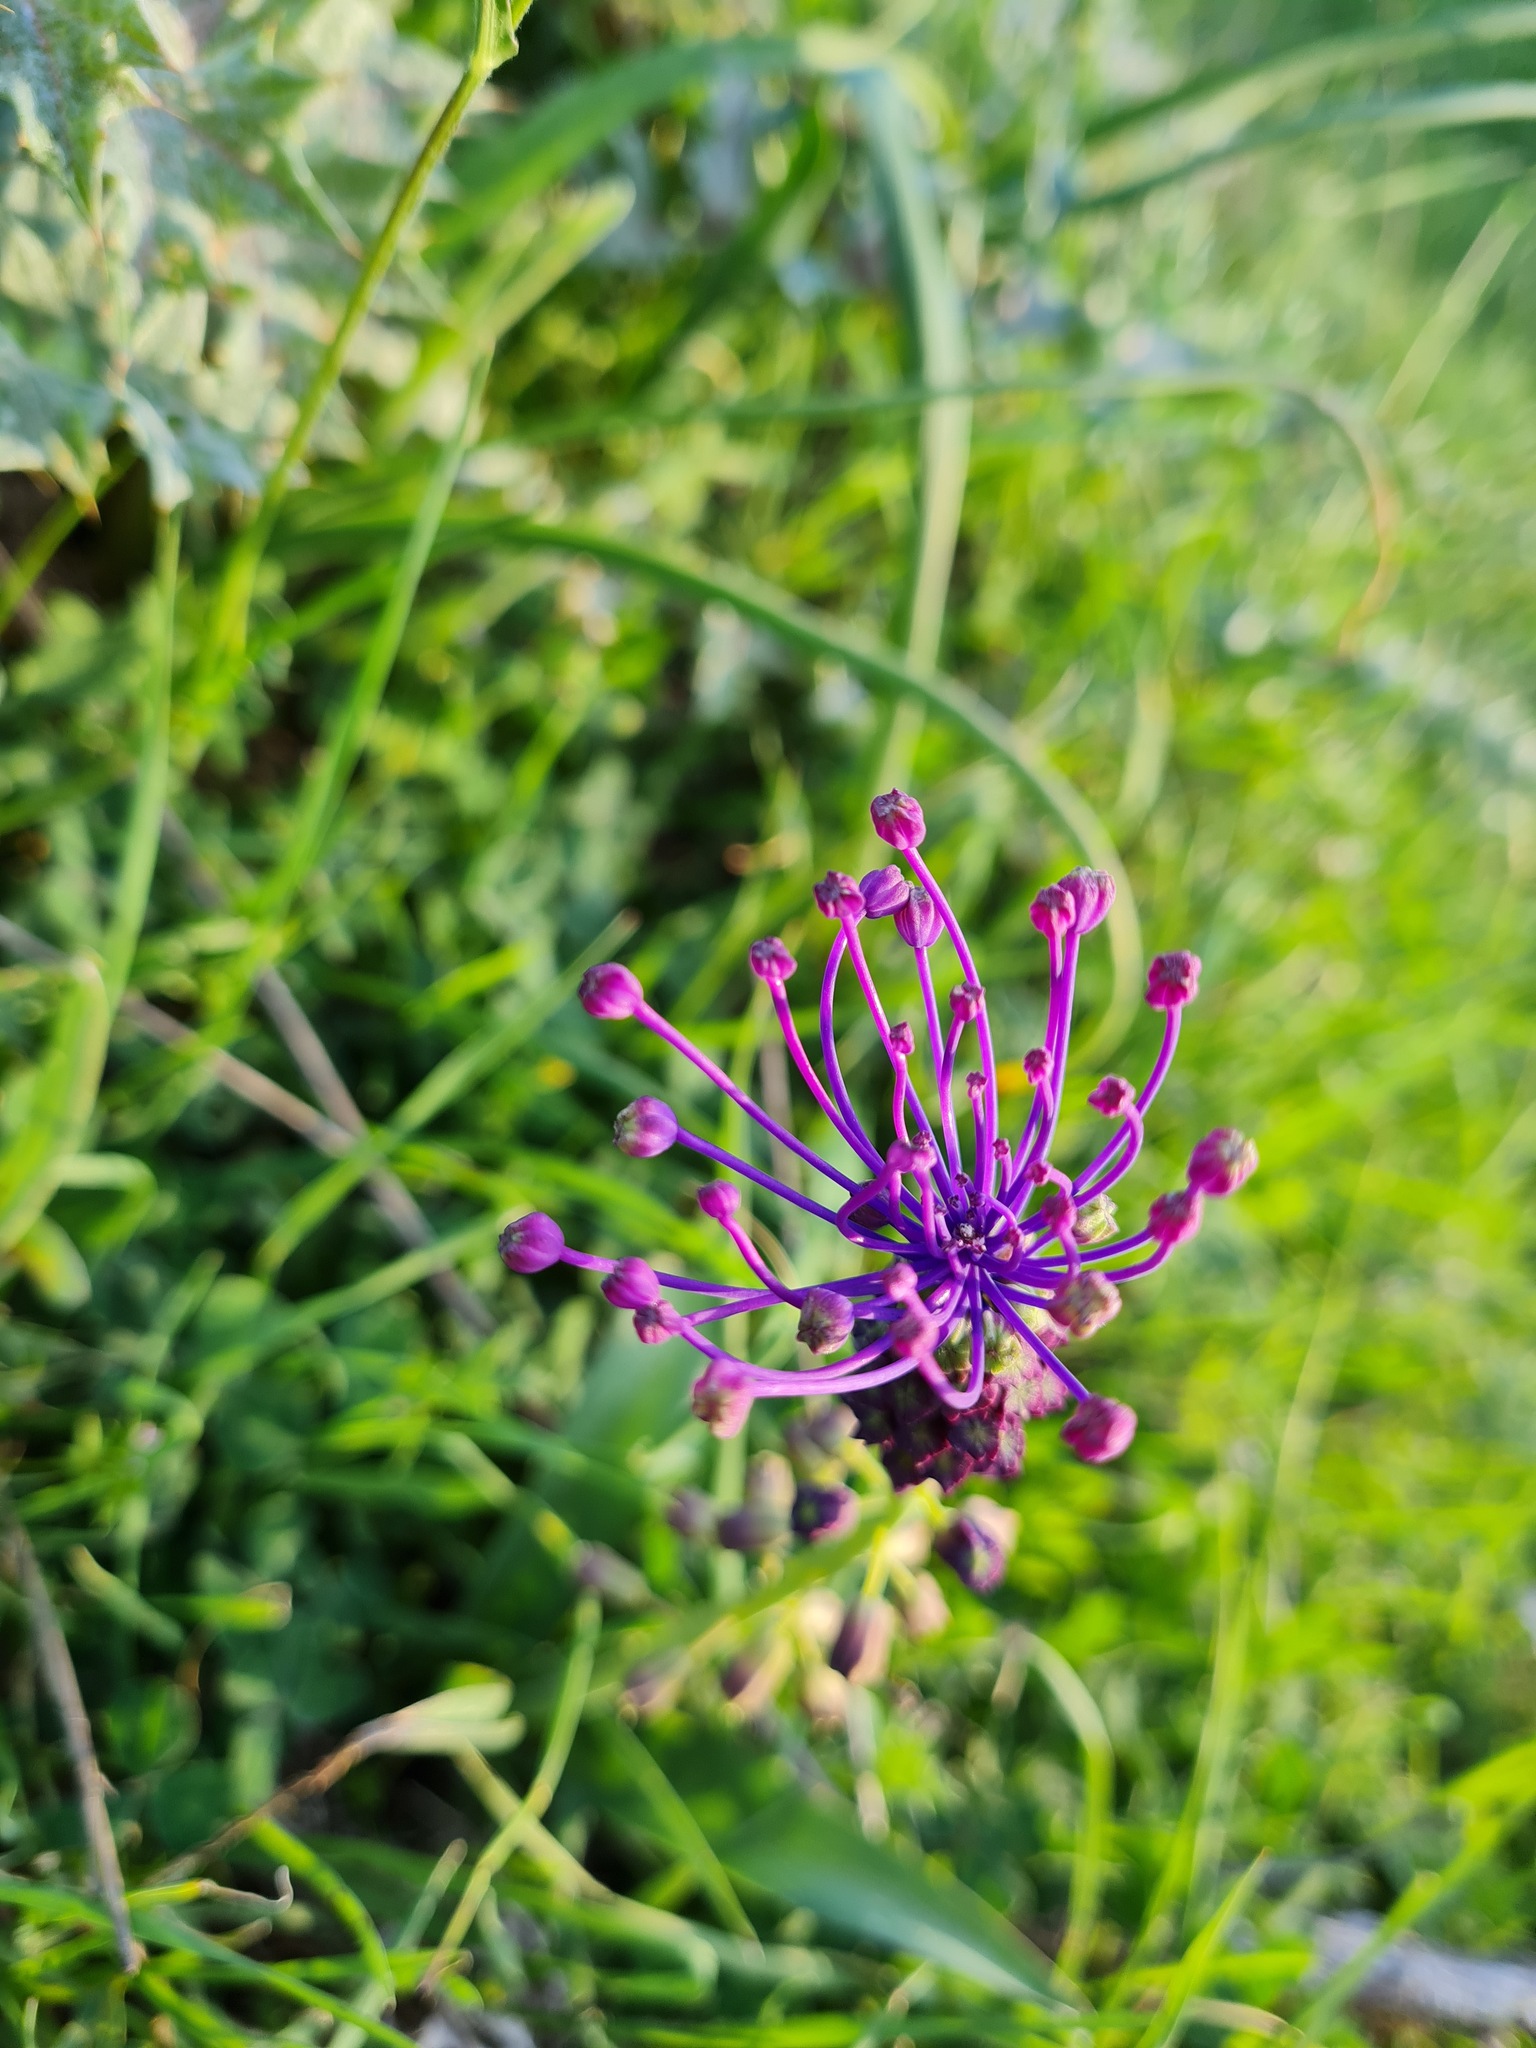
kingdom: Plantae
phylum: Tracheophyta
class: Liliopsida
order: Asparagales
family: Asparagaceae
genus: Muscari
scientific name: Muscari comosum
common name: Tassel hyacinth
